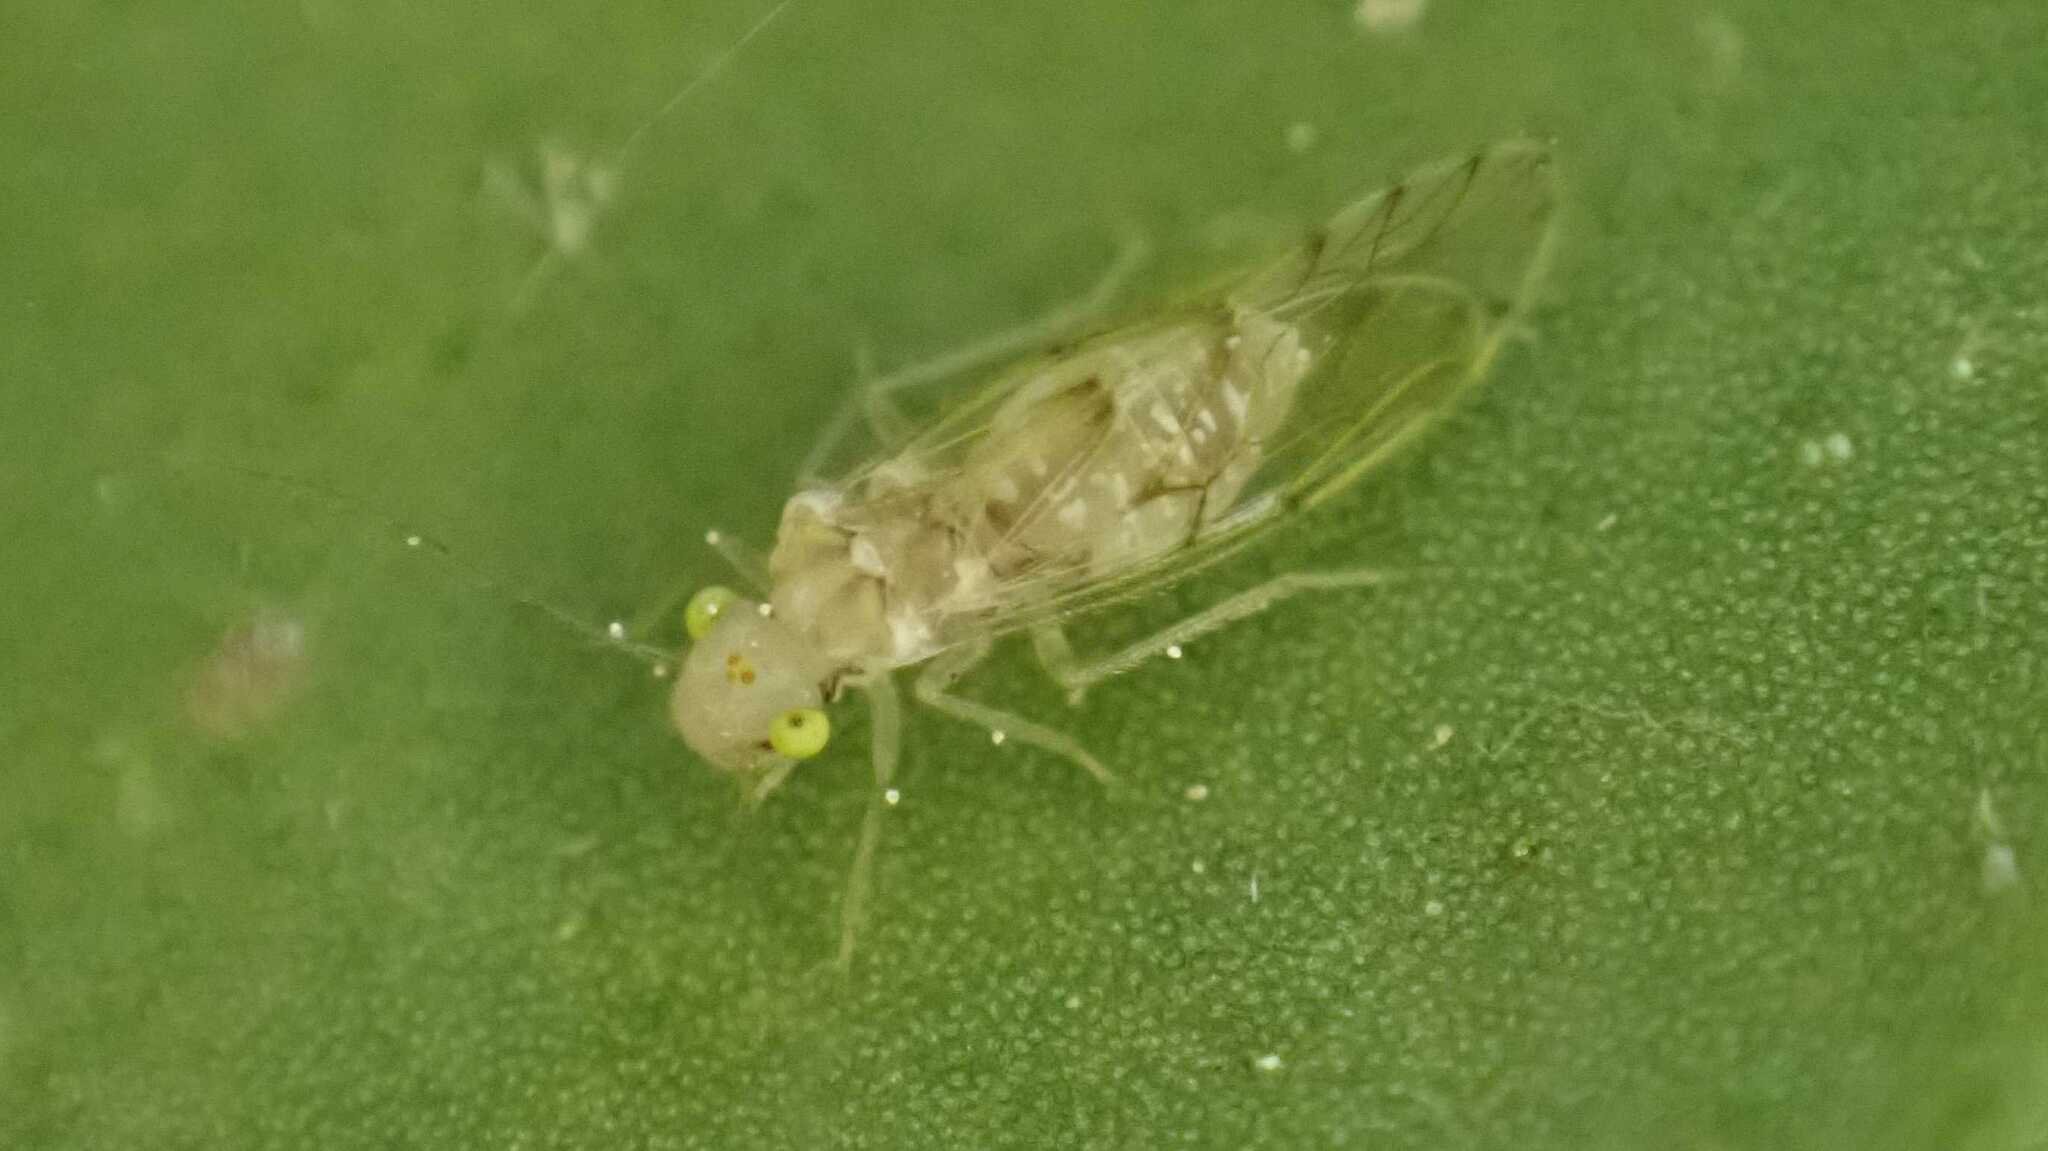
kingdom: Animalia
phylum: Arthropoda
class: Insecta
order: Psocodea
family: Trichopsocidae
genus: Trichopsocus
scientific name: Trichopsocus clarus
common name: Lash-faced psocid
